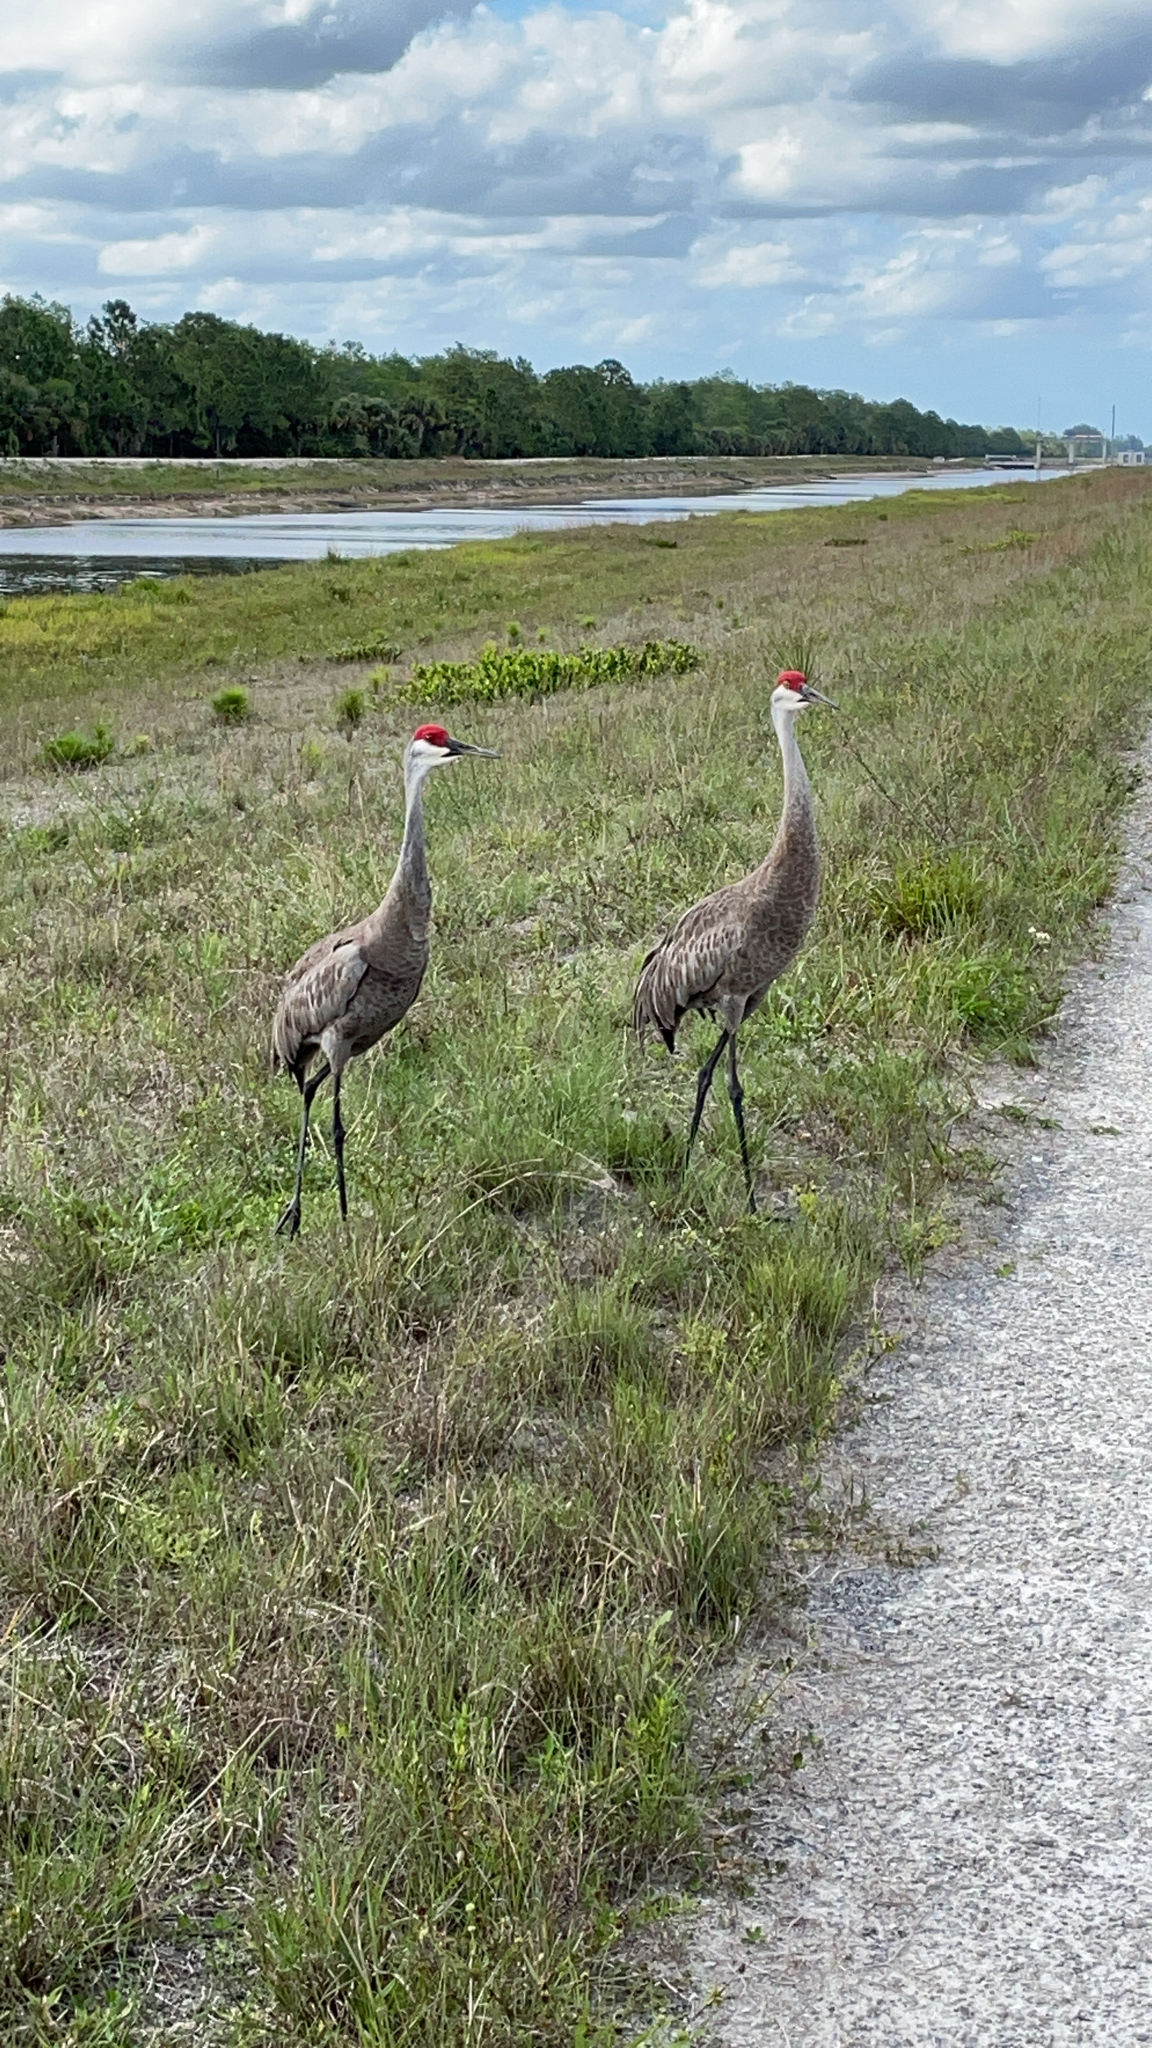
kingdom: Animalia
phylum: Chordata
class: Aves
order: Gruiformes
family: Gruidae
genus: Grus
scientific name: Grus canadensis
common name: Sandhill crane
